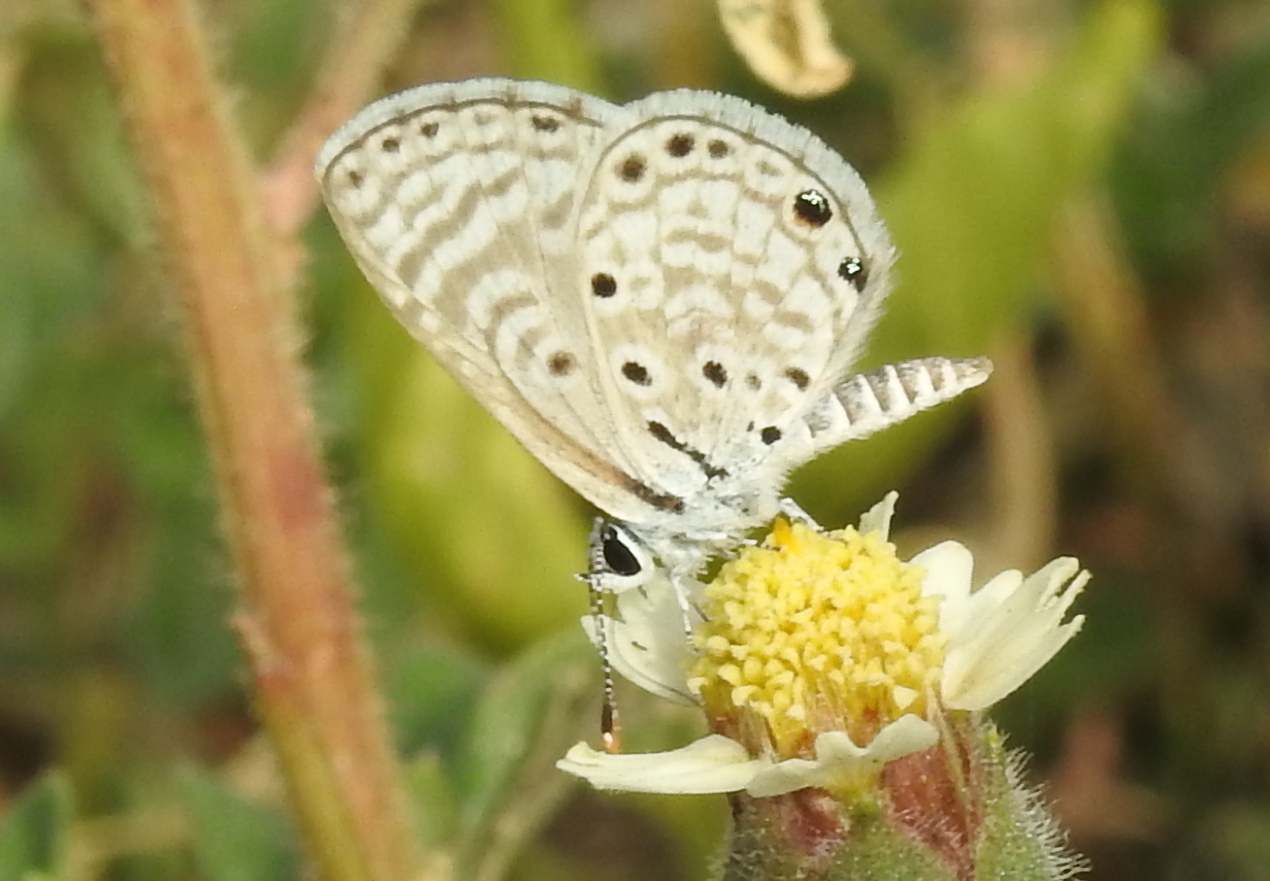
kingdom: Animalia
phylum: Arthropoda
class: Insecta
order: Lepidoptera
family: Lycaenidae
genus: Azanus
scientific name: Azanus jesous
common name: African babul blue
